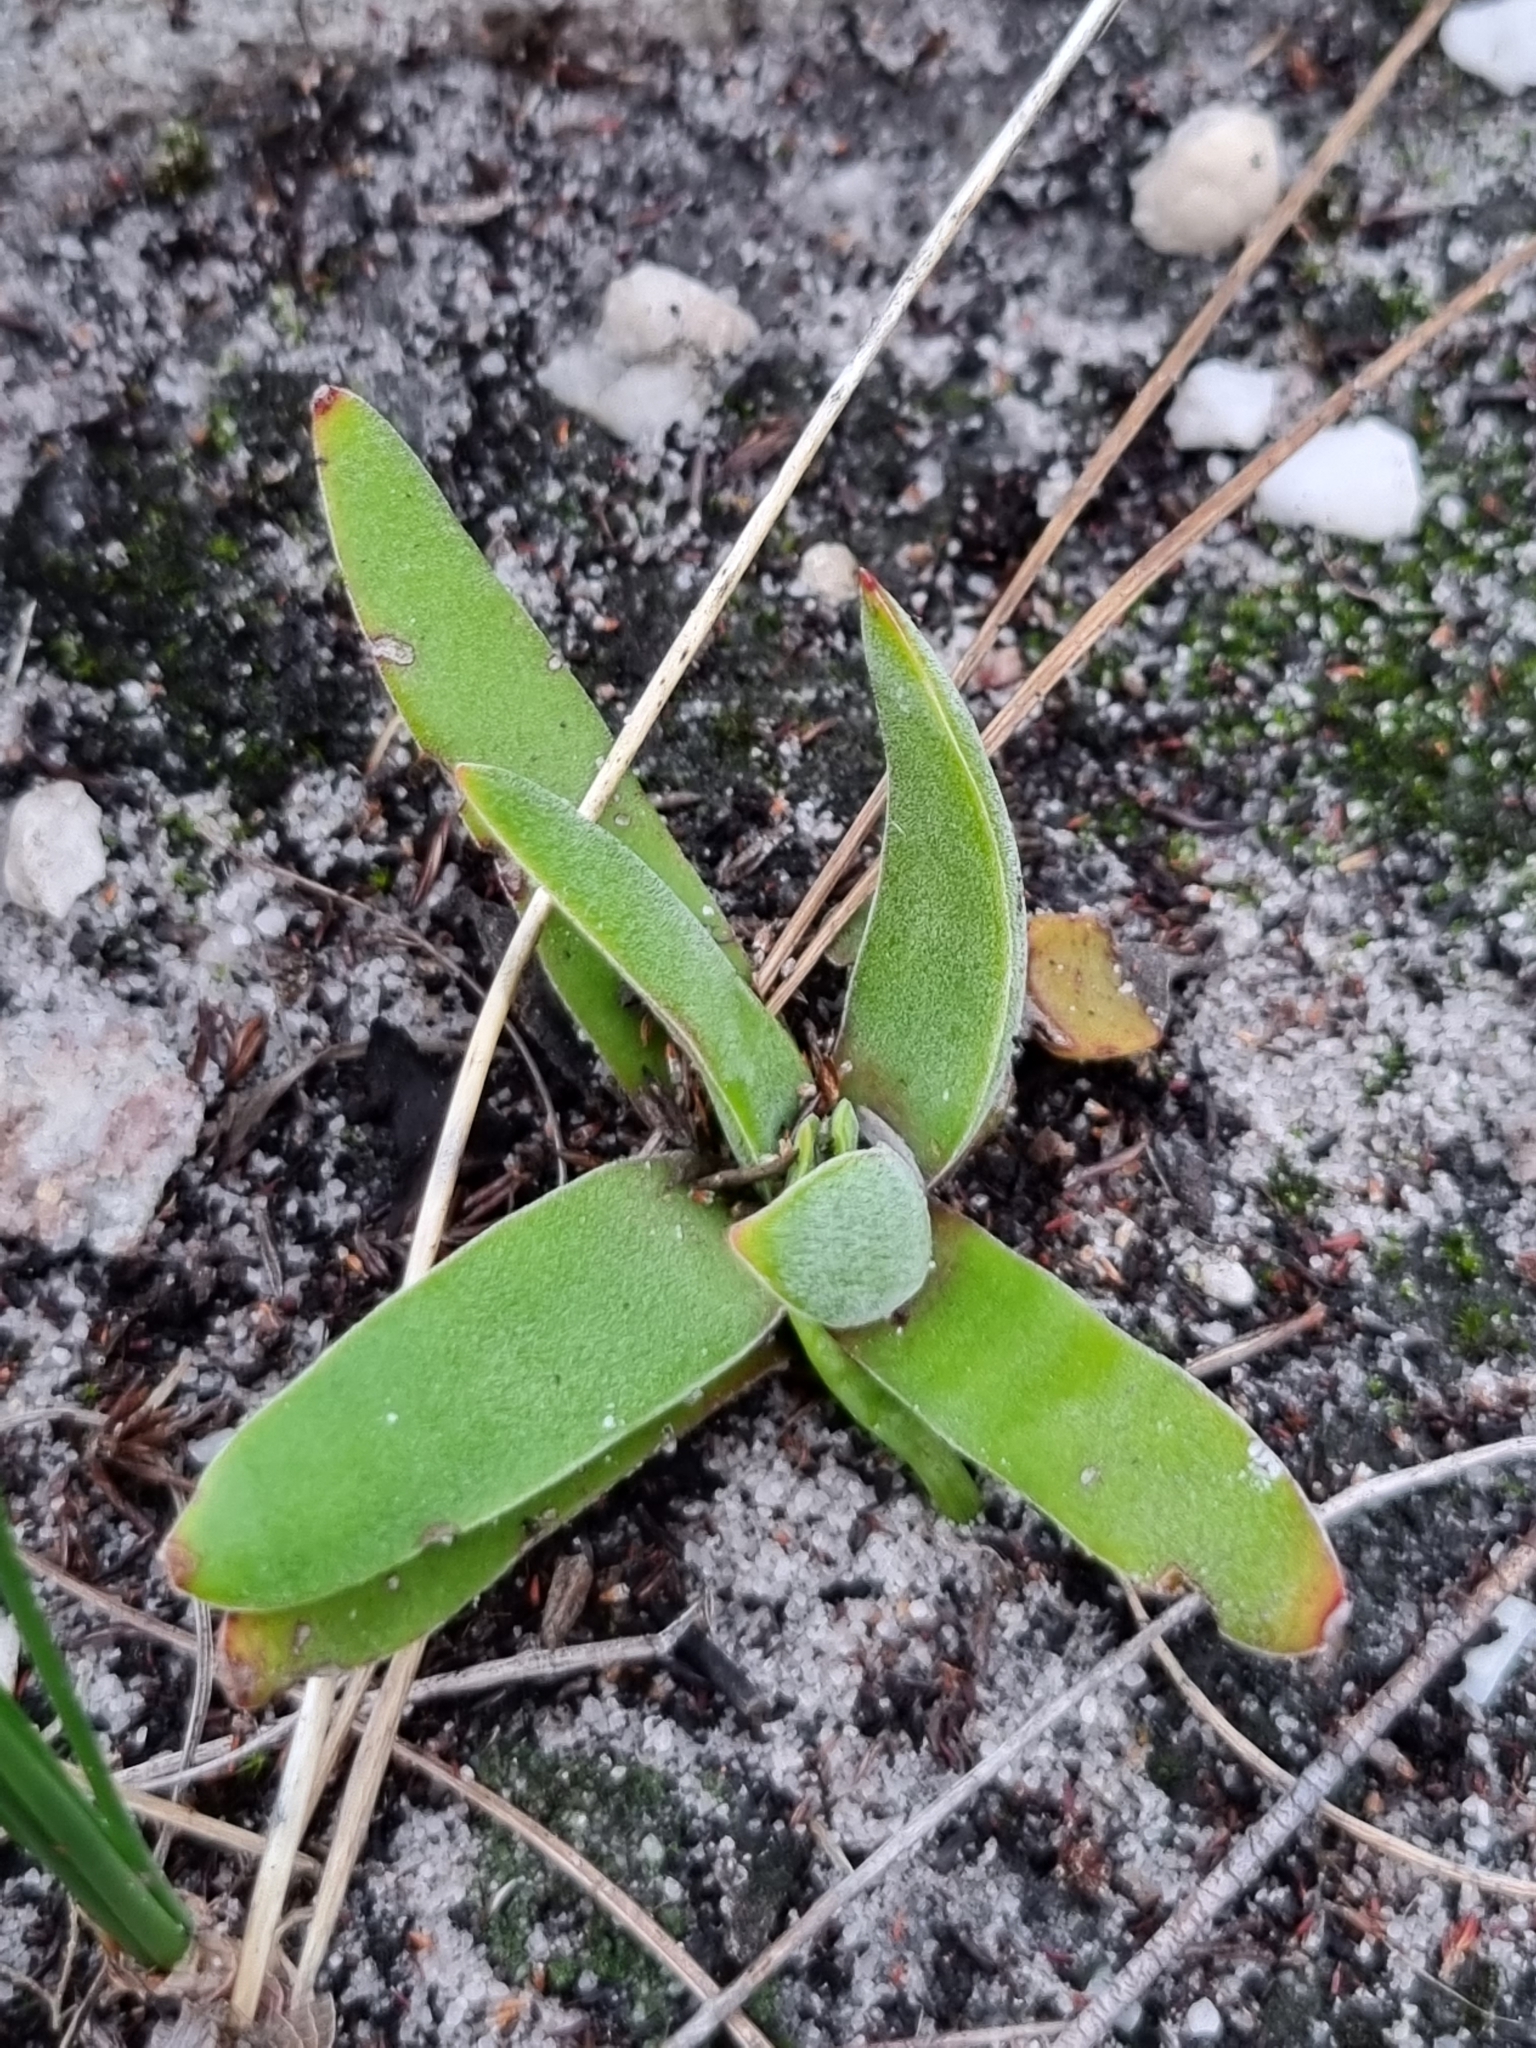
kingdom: Plantae
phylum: Tracheophyta
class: Magnoliopsida
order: Saxifragales
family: Crassulaceae
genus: Crassula
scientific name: Crassula nudicaulis
